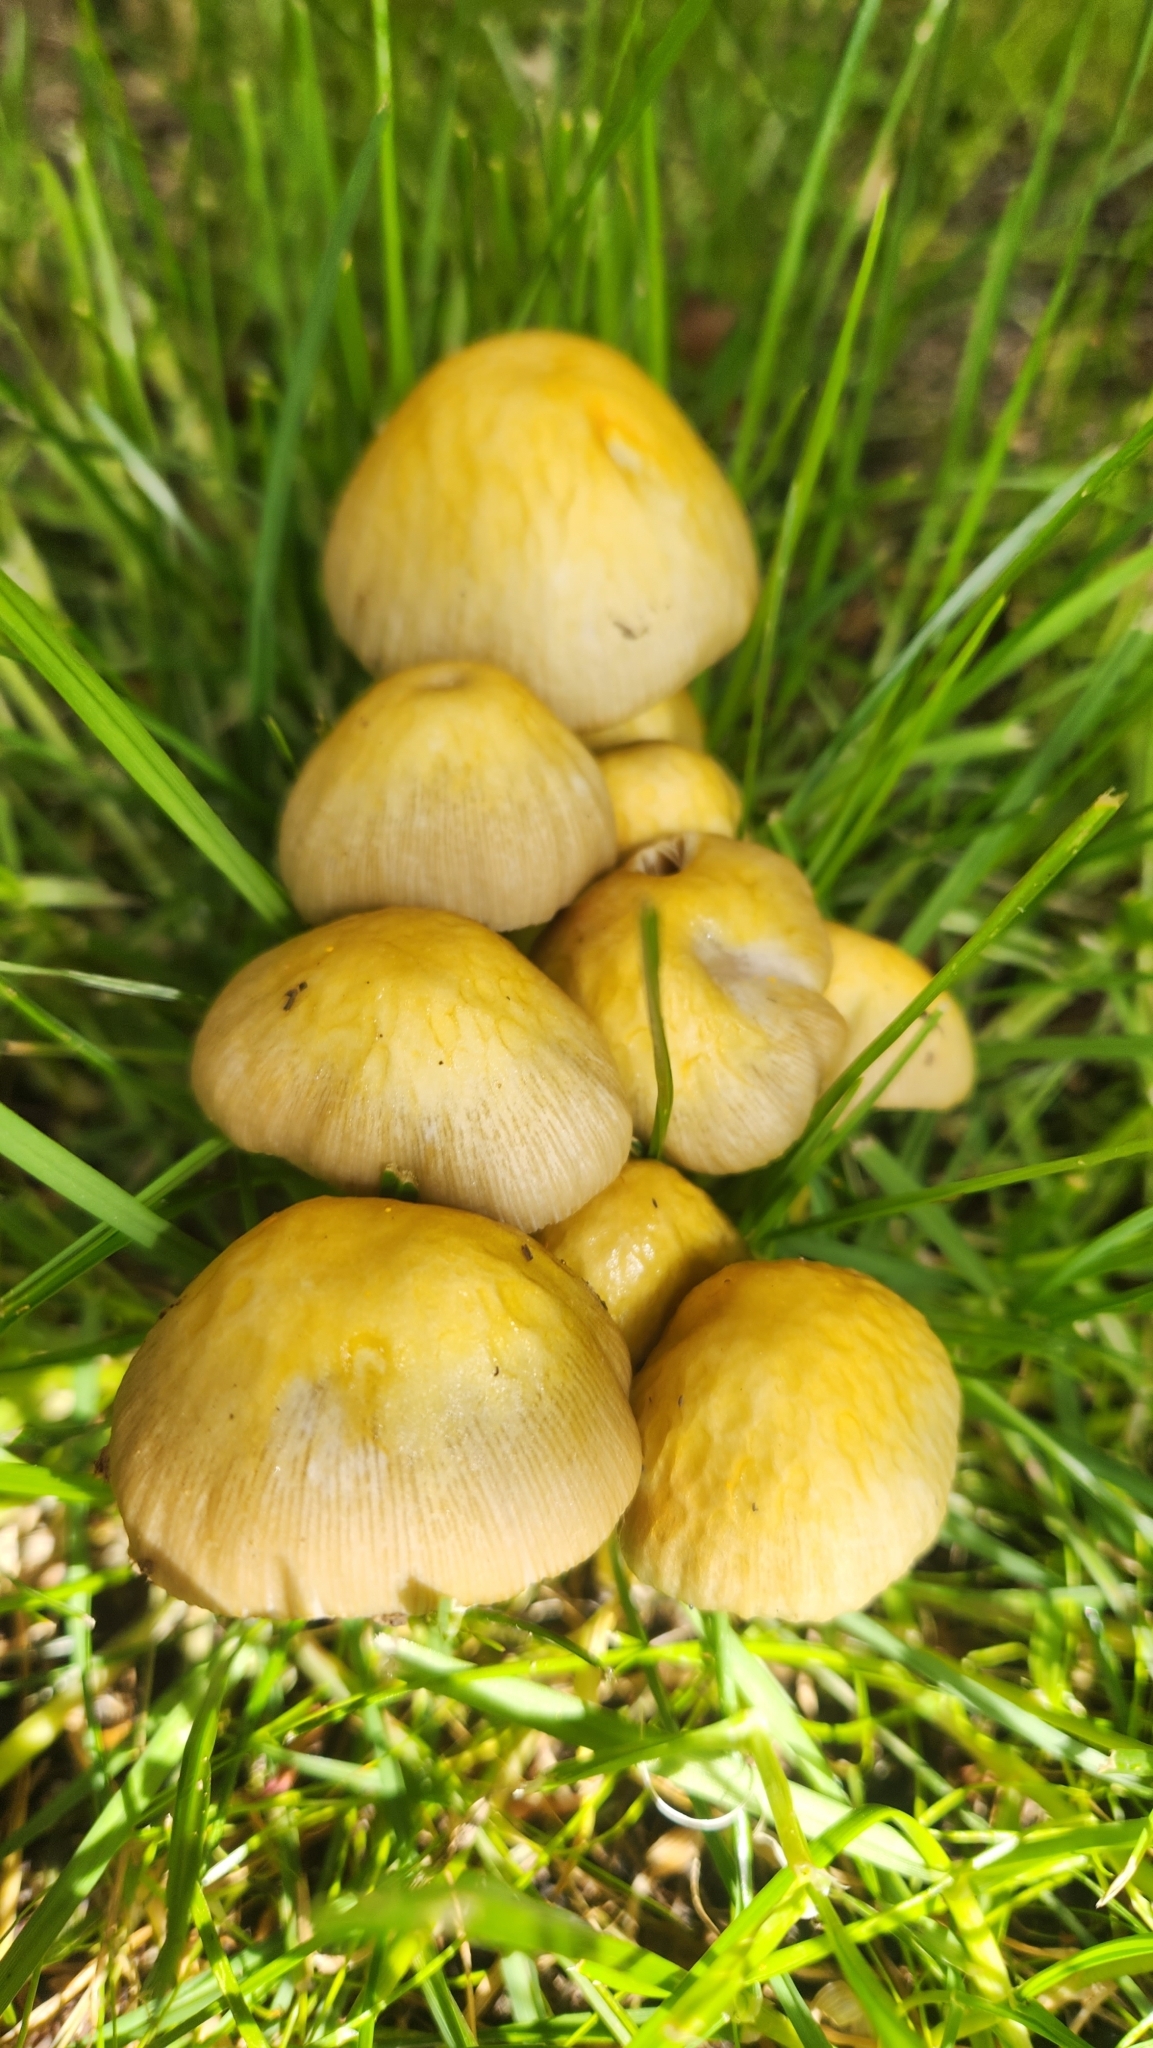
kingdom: Fungi
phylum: Basidiomycota
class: Agaricomycetes
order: Agaricales
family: Bolbitiaceae
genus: Bolbitius
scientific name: Bolbitius titubans
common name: Yellow fieldcap
